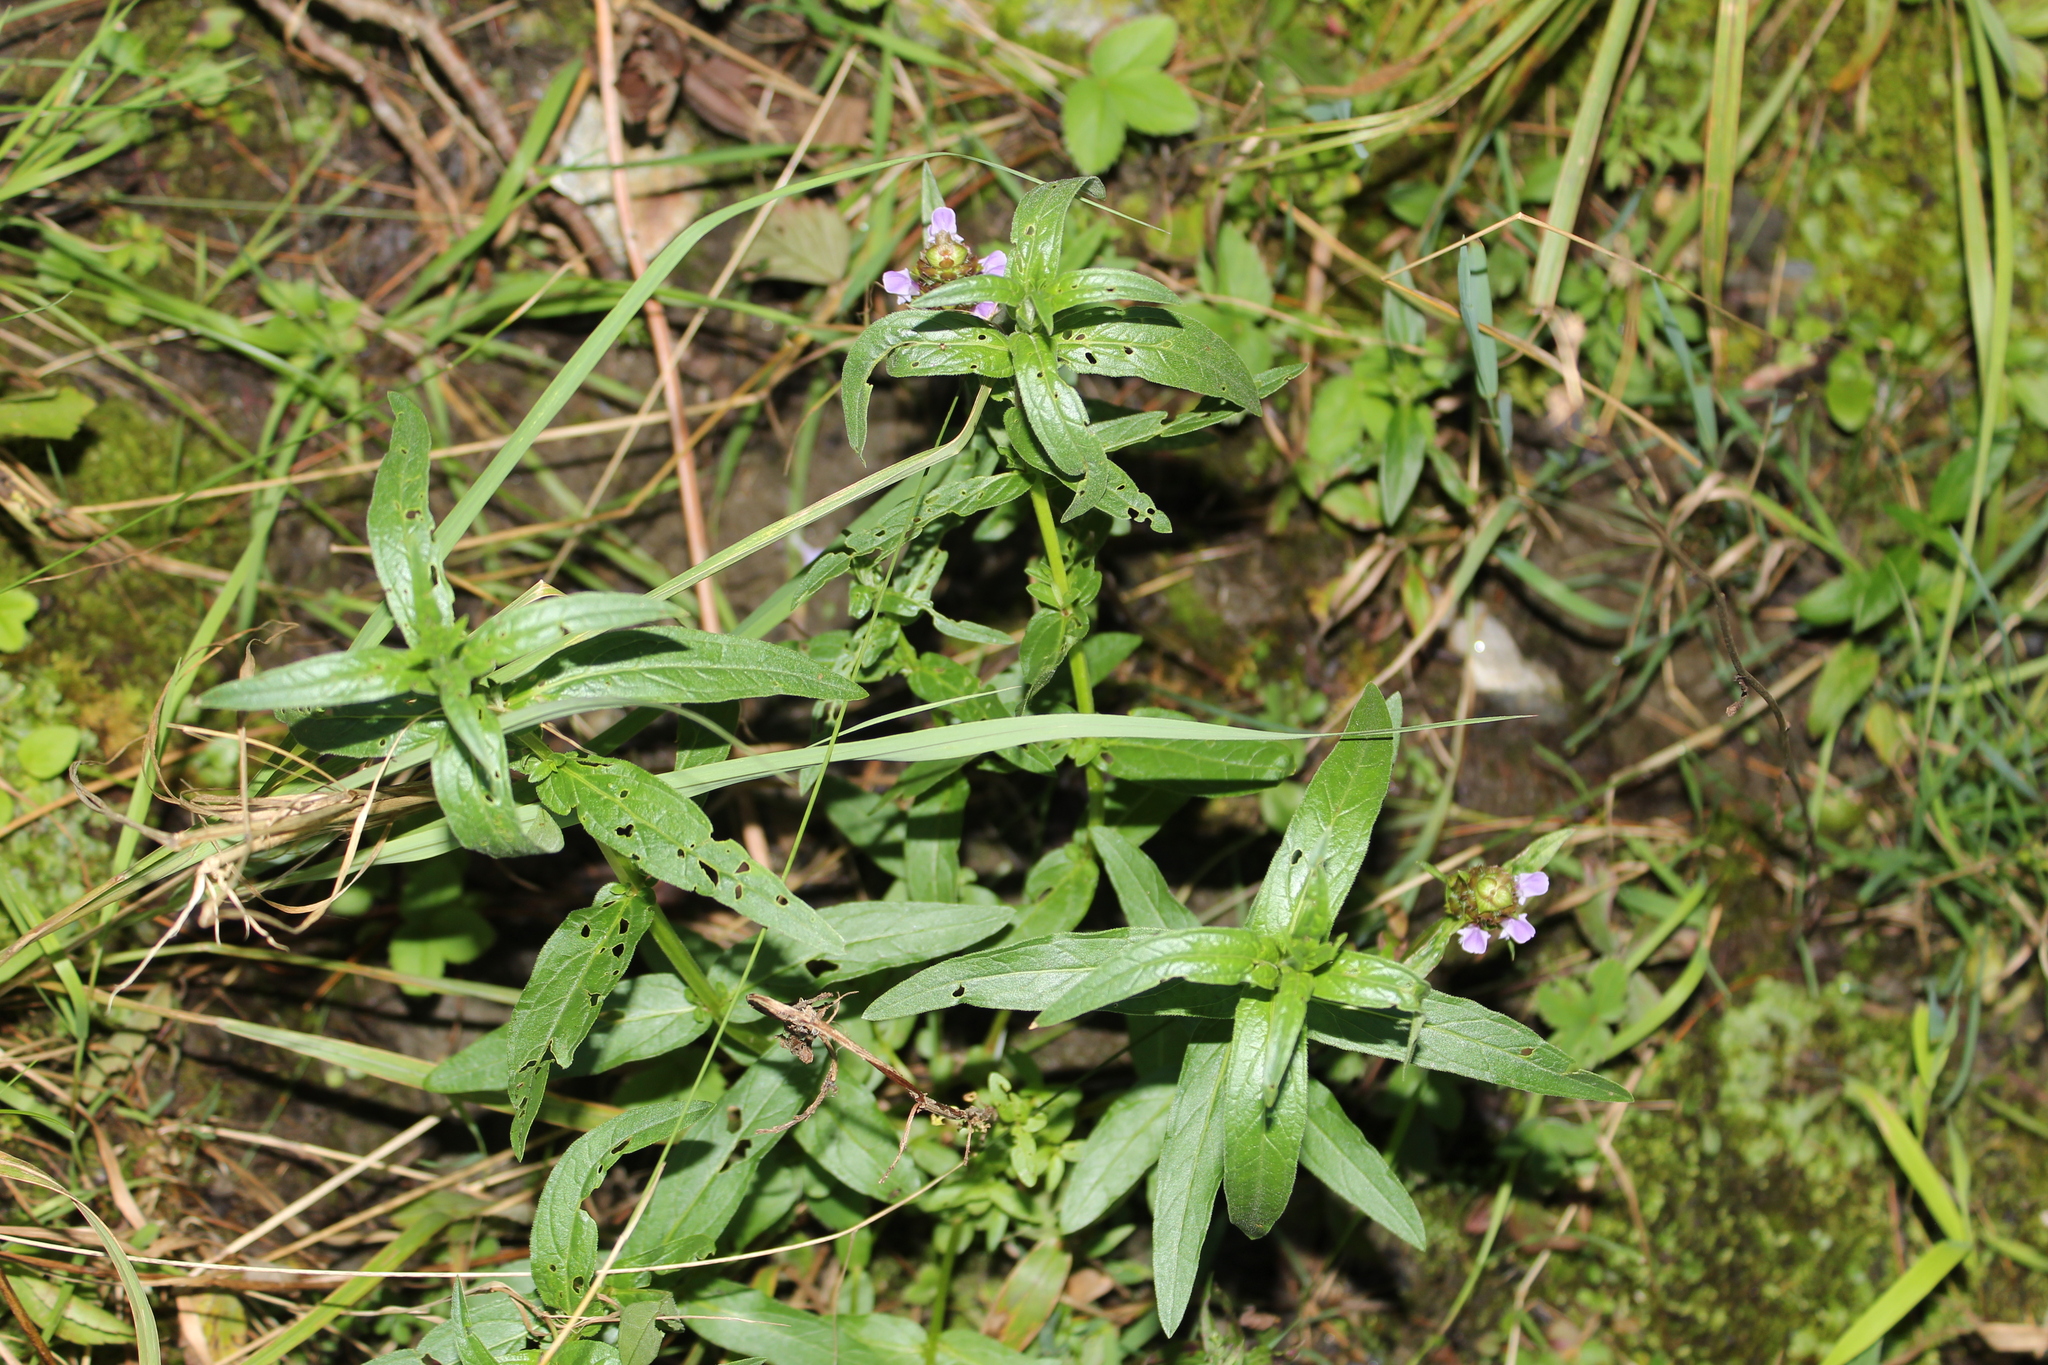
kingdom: Plantae
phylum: Tracheophyta
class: Magnoliopsida
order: Myrtales
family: Lythraceae
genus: Lythrum
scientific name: Lythrum salicaria
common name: Purple loosestrife
